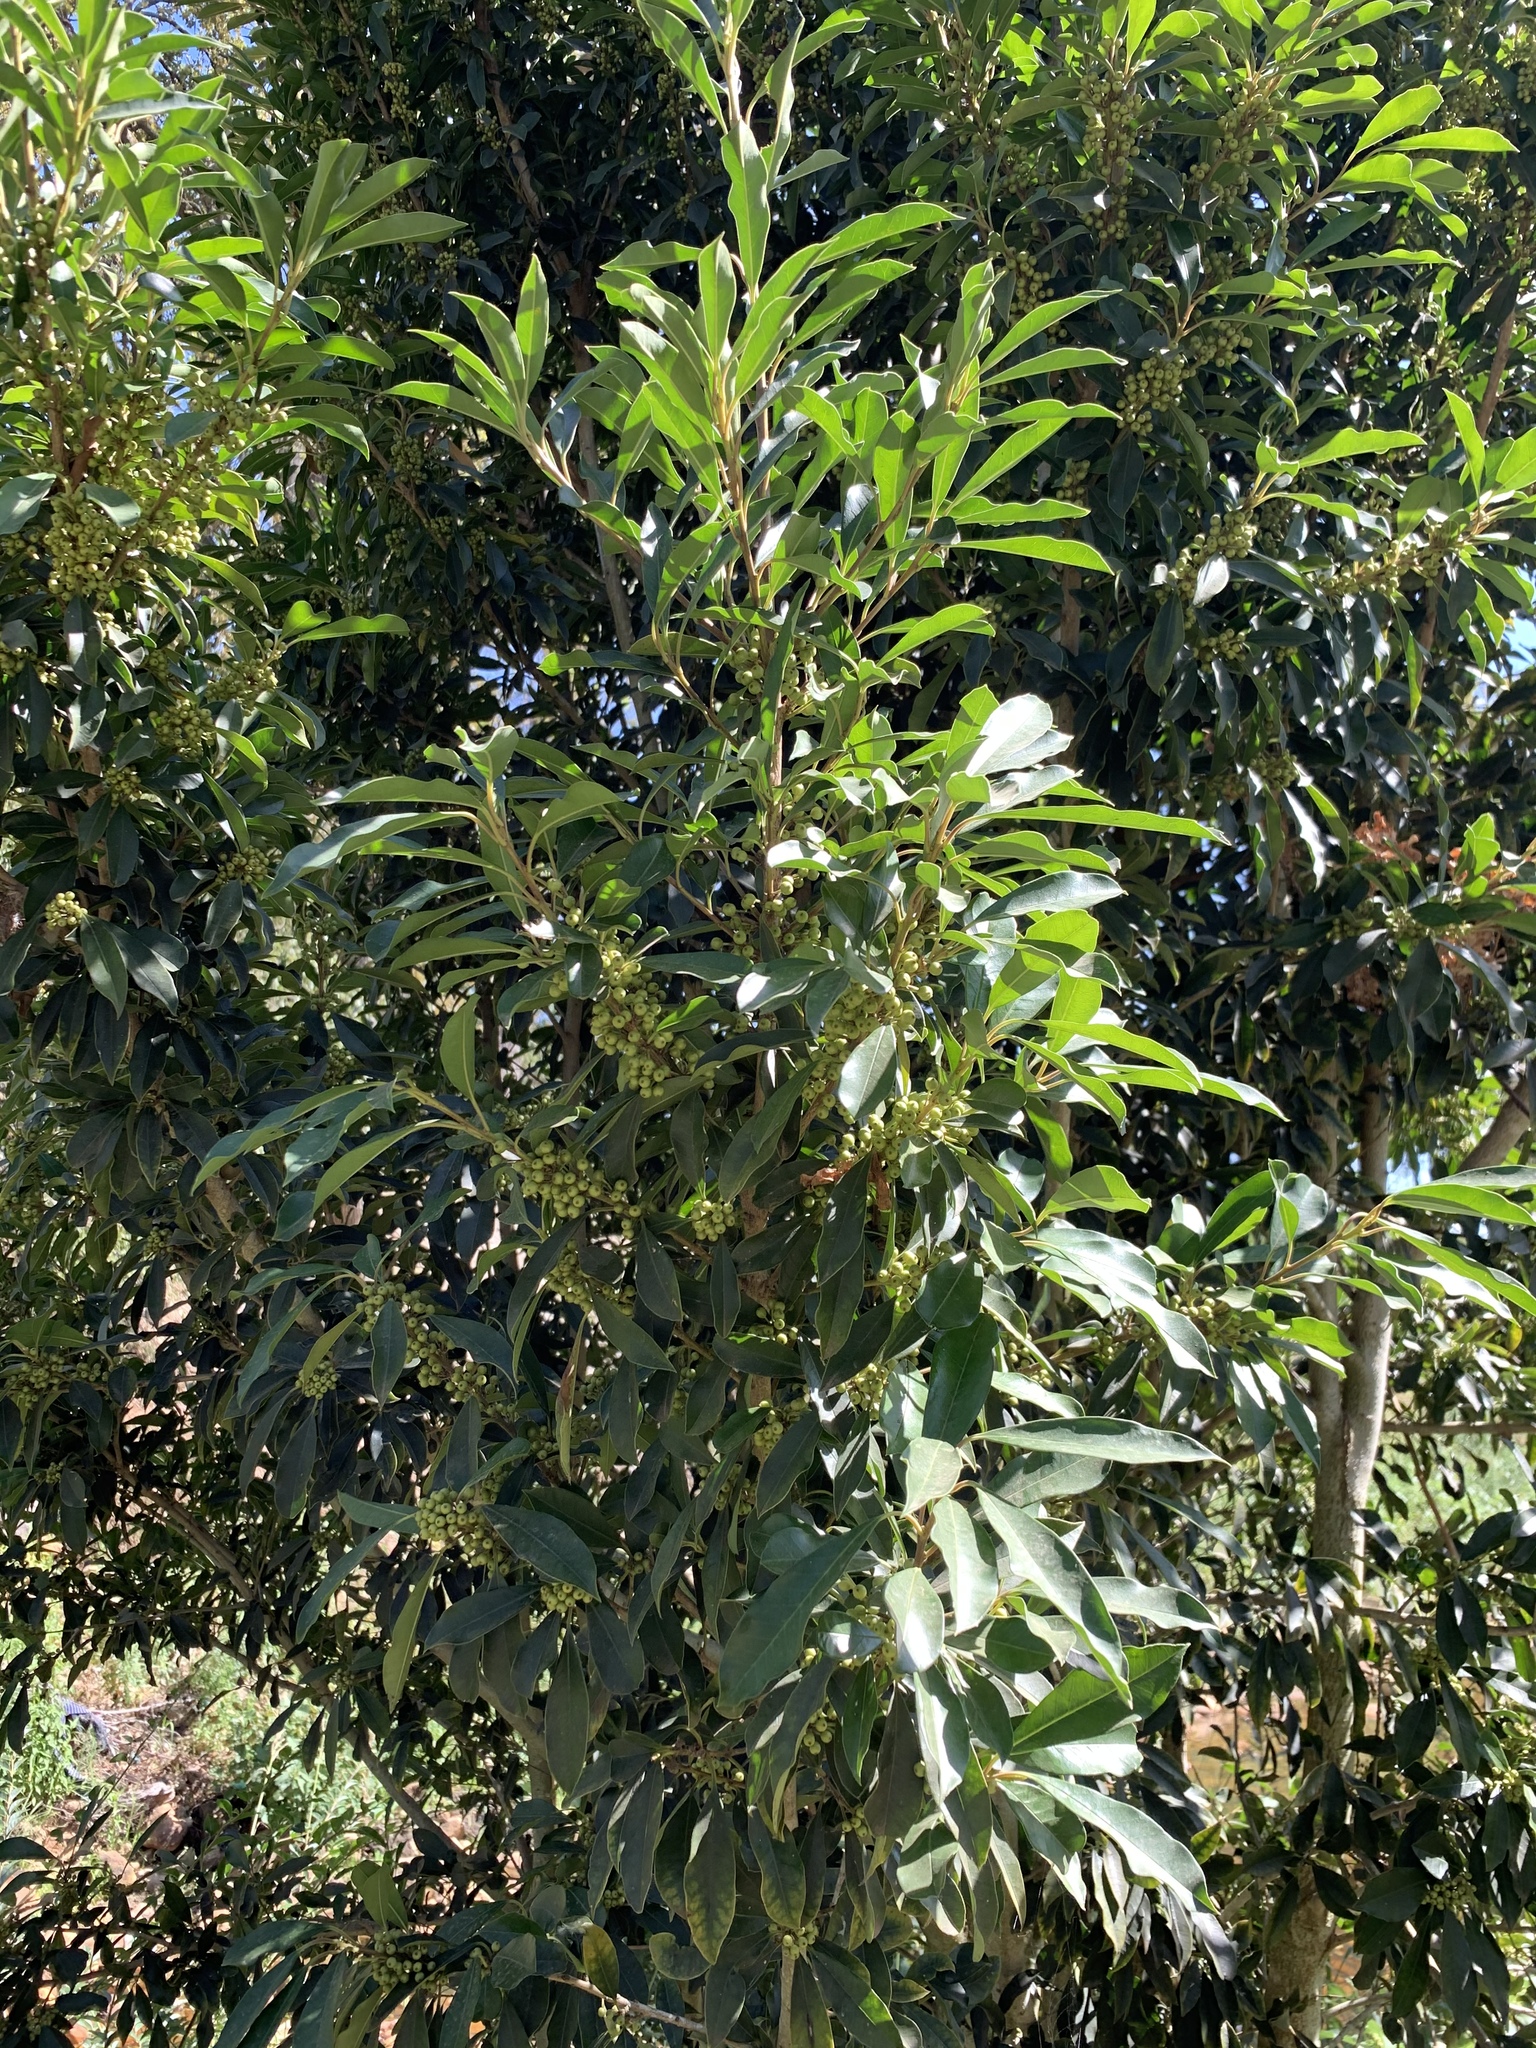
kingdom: Plantae
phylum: Tracheophyta
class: Magnoliopsida
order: Aquifoliales
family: Aquifoliaceae
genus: Ilex
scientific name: Ilex mitis
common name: African holly
